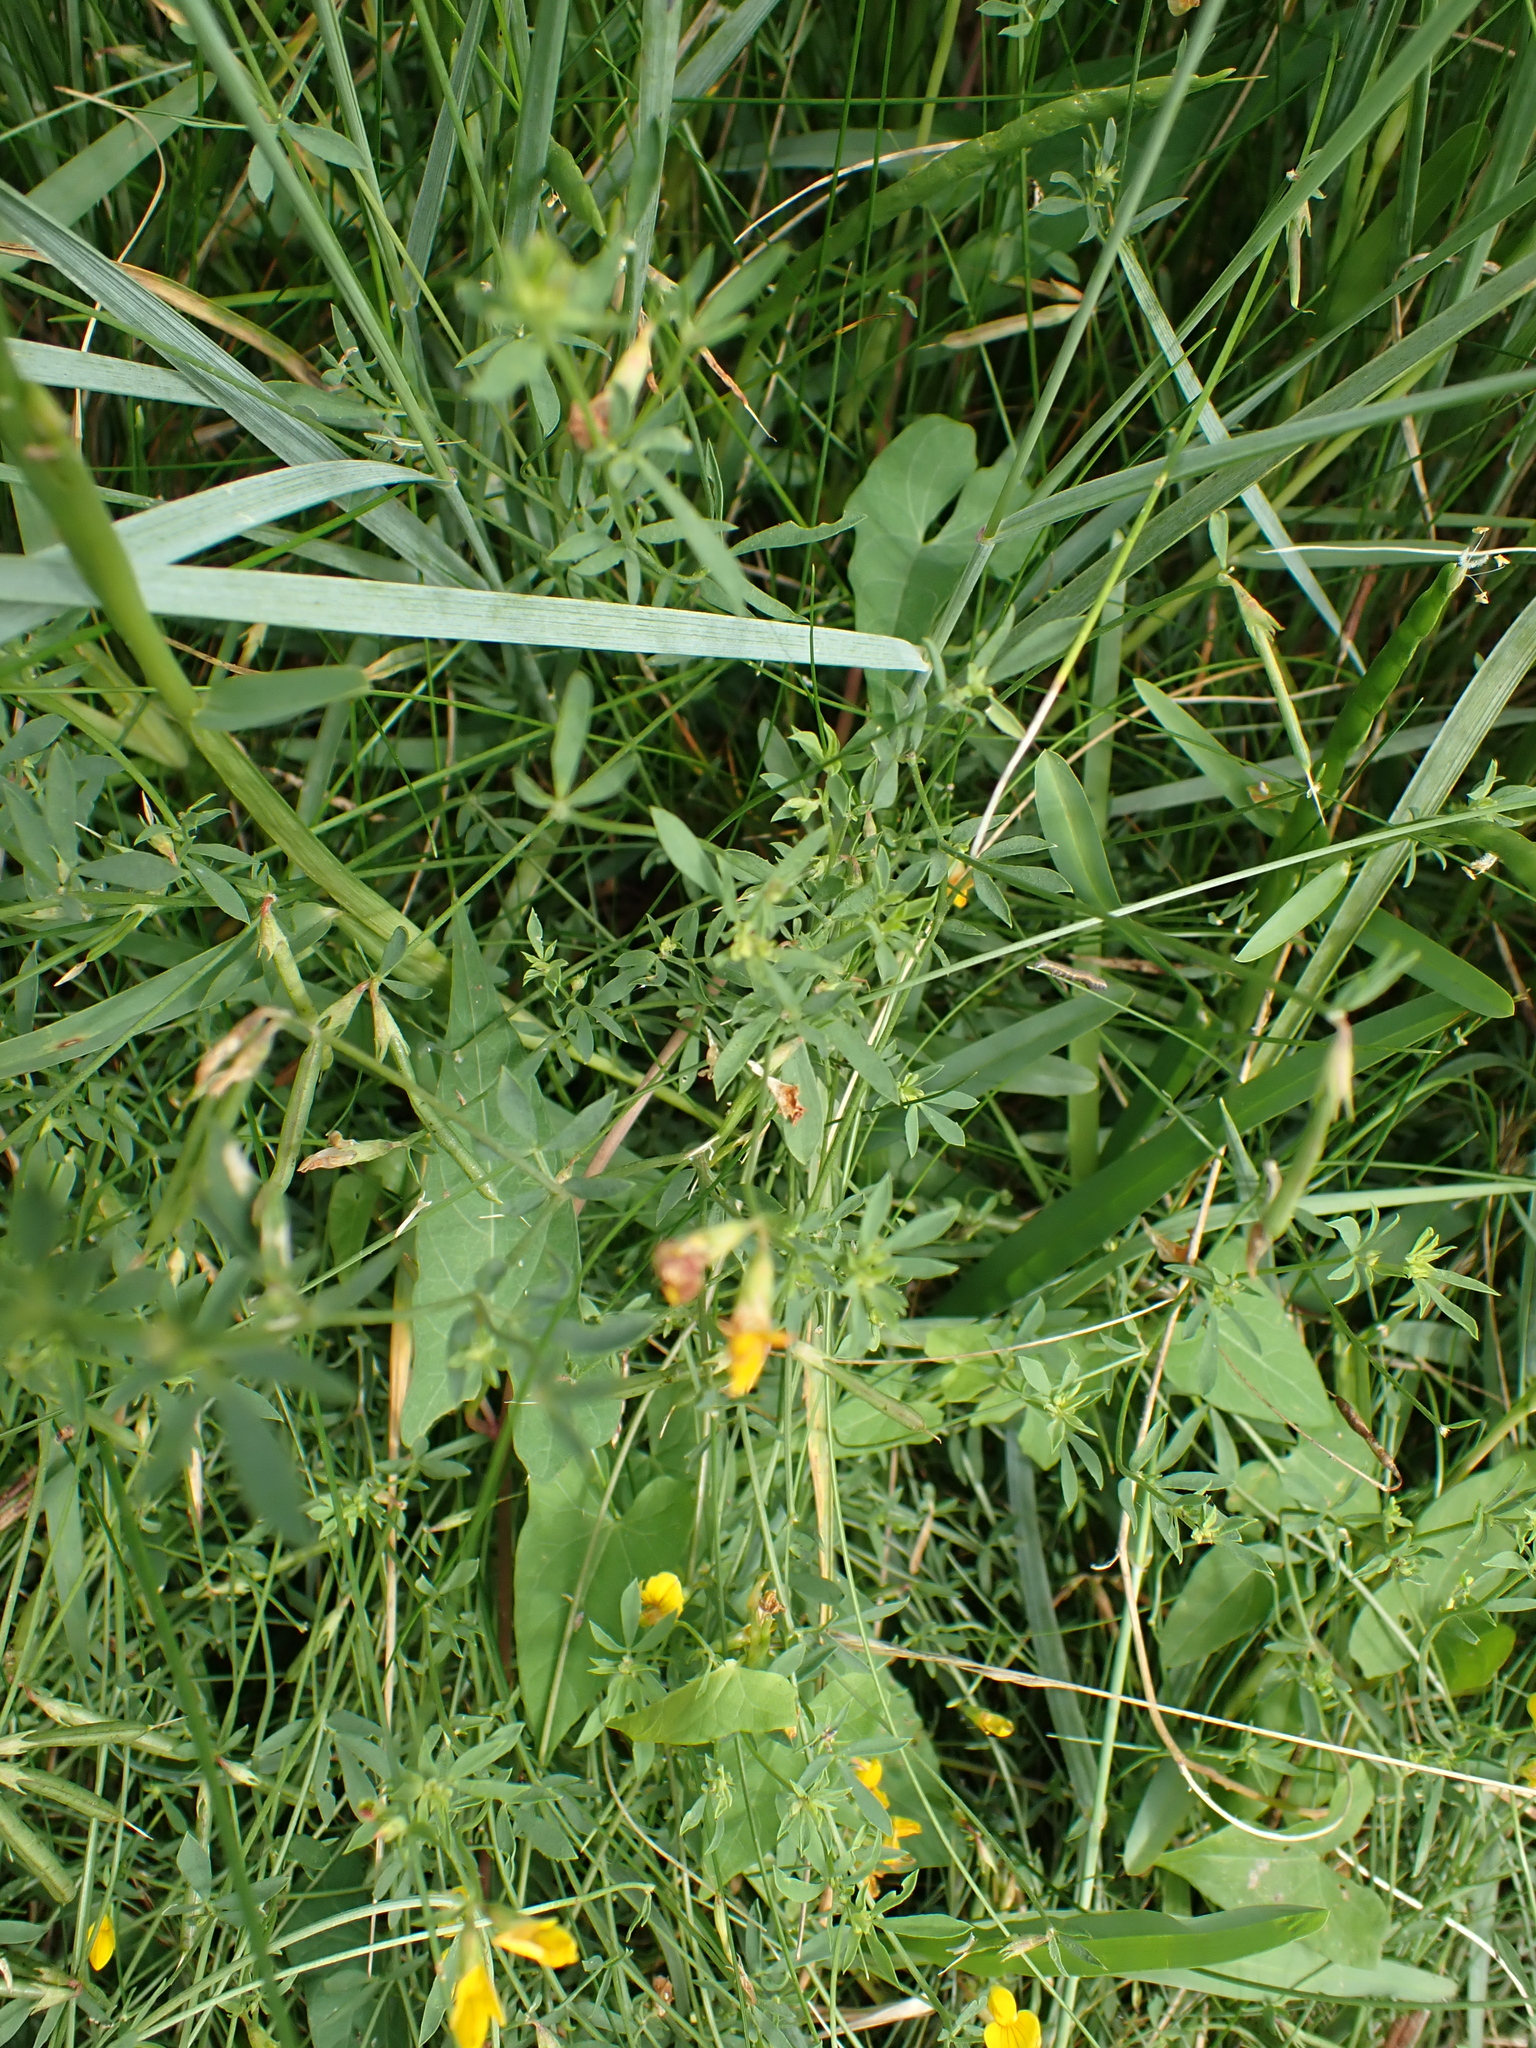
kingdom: Plantae
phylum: Tracheophyta
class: Magnoliopsida
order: Fabales
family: Fabaceae
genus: Lotus
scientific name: Lotus tenuis
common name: Narrow-leaved bird's-foot-trefoil
